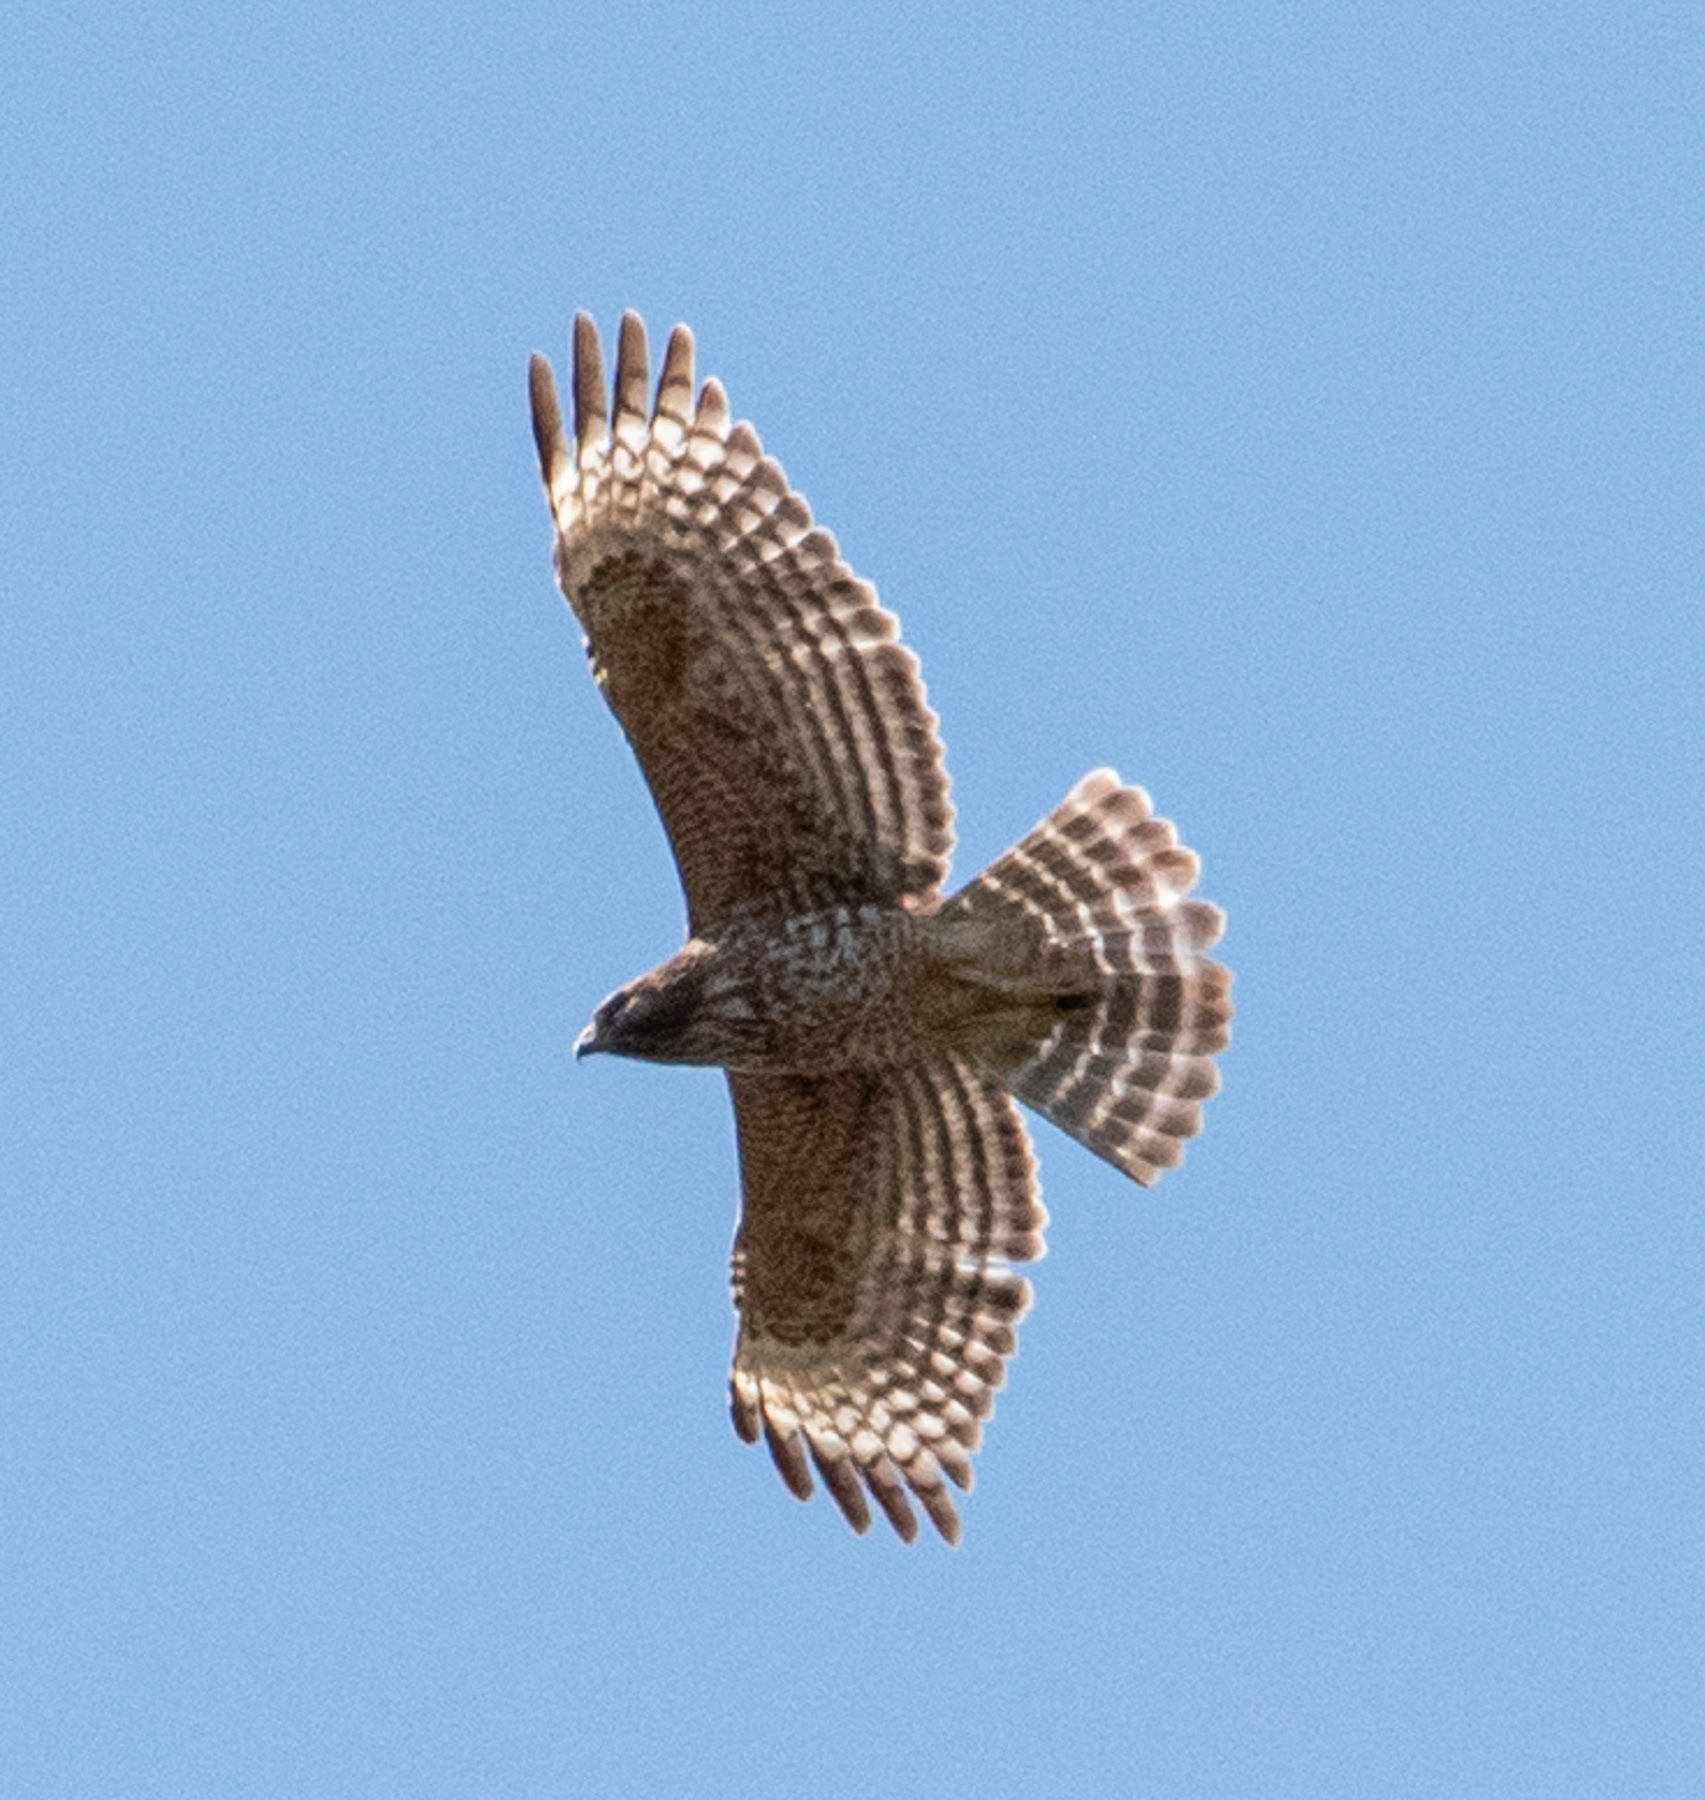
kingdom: Animalia
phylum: Chordata
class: Aves
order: Accipitriformes
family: Accipitridae
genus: Buteo
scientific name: Buteo lineatus
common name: Red-shouldered hawk
